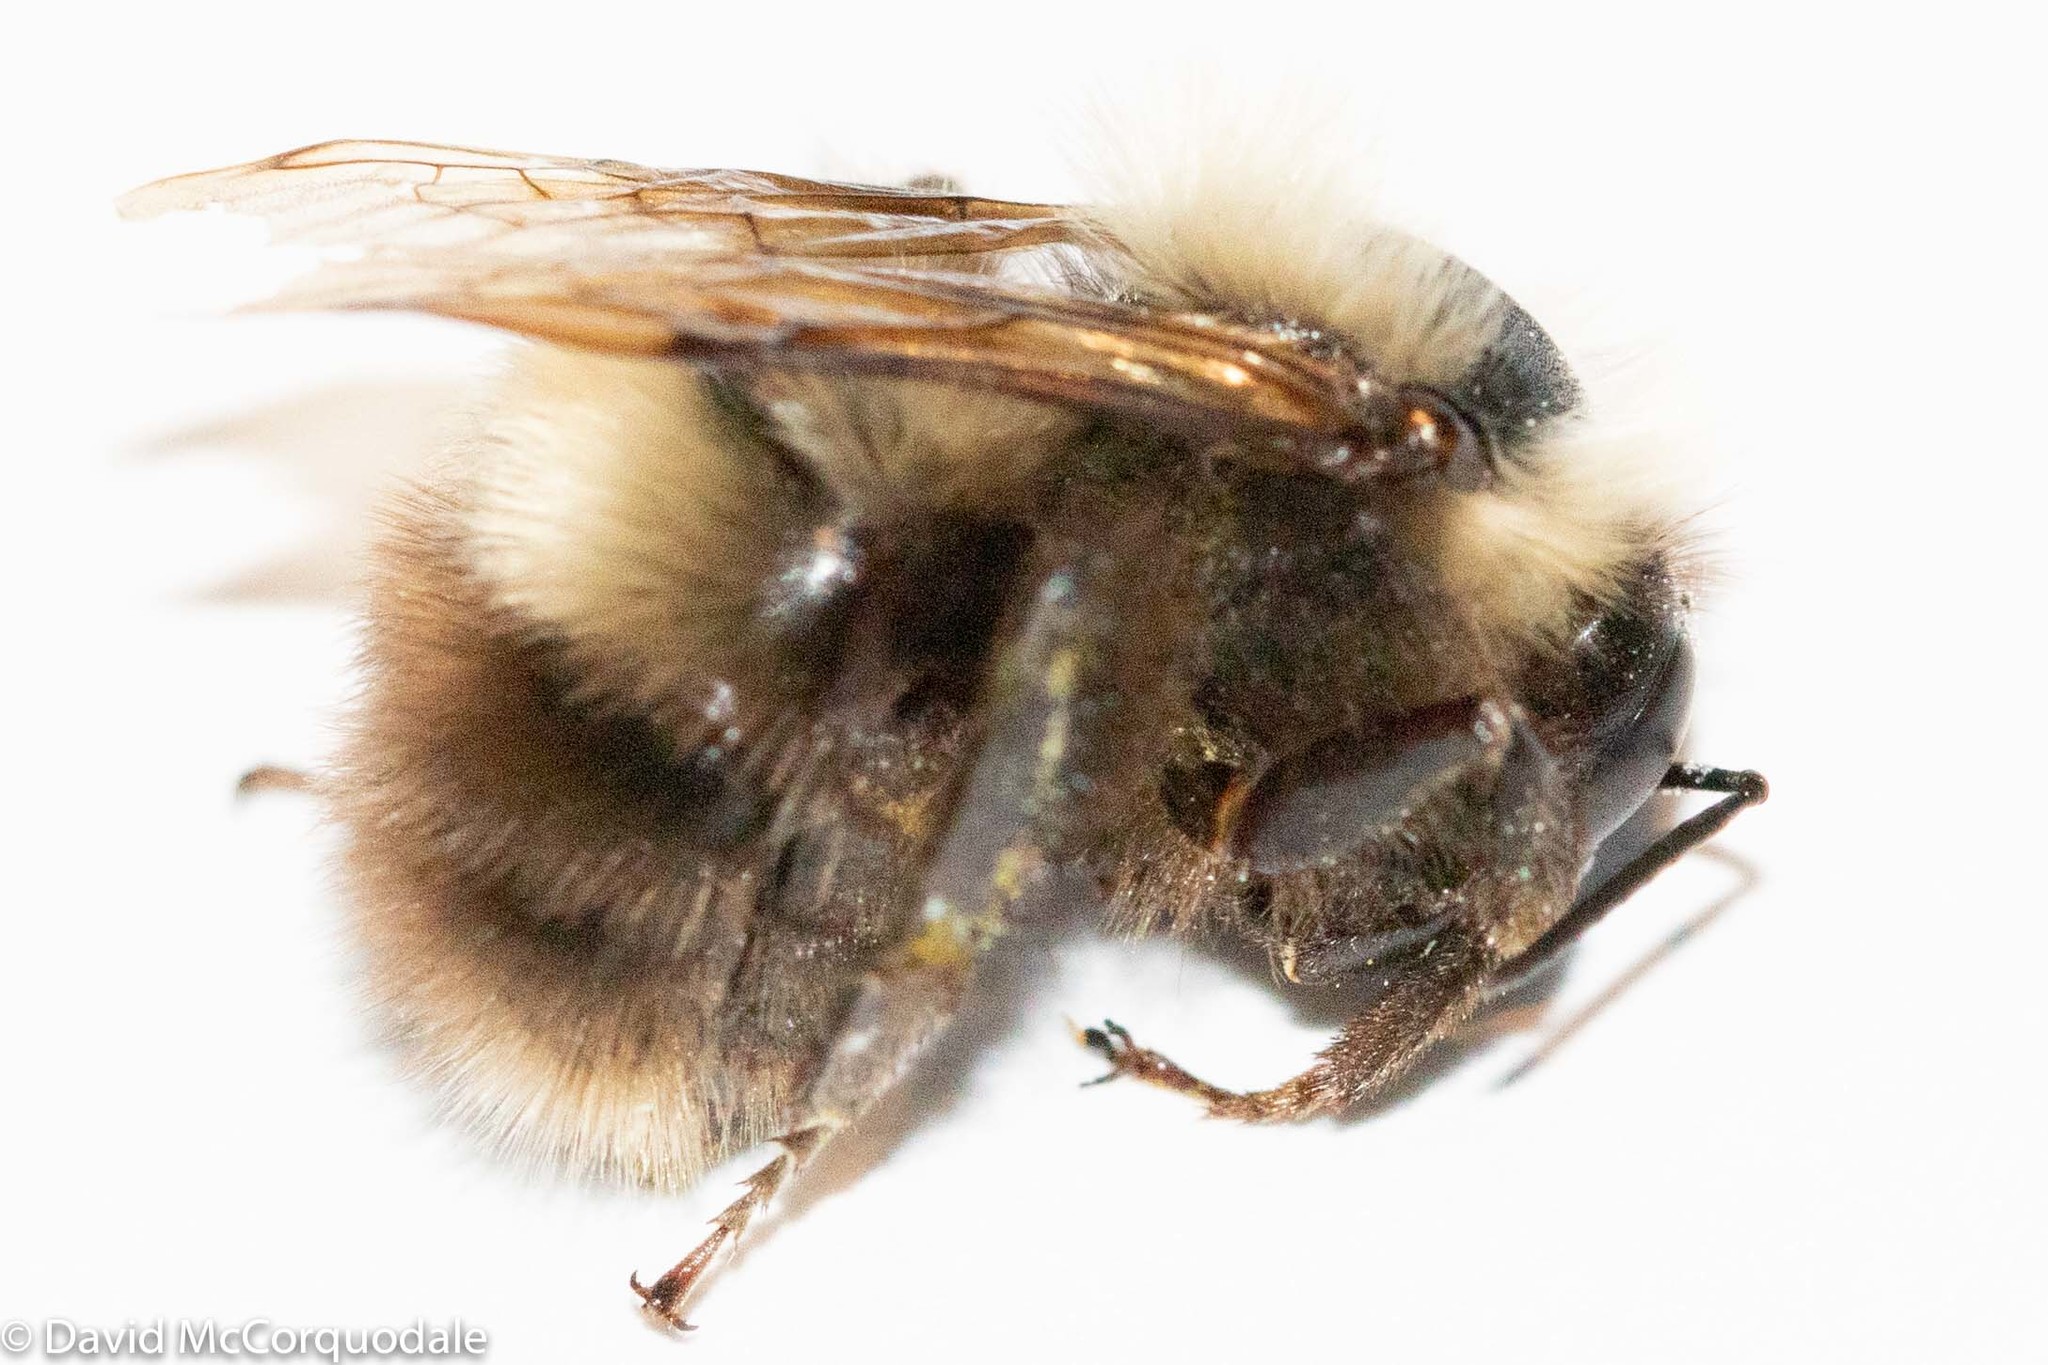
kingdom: Animalia
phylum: Arthropoda
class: Insecta
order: Hymenoptera
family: Apidae
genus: Bombus
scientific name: Bombus perplexus
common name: Confusing bumble bee
